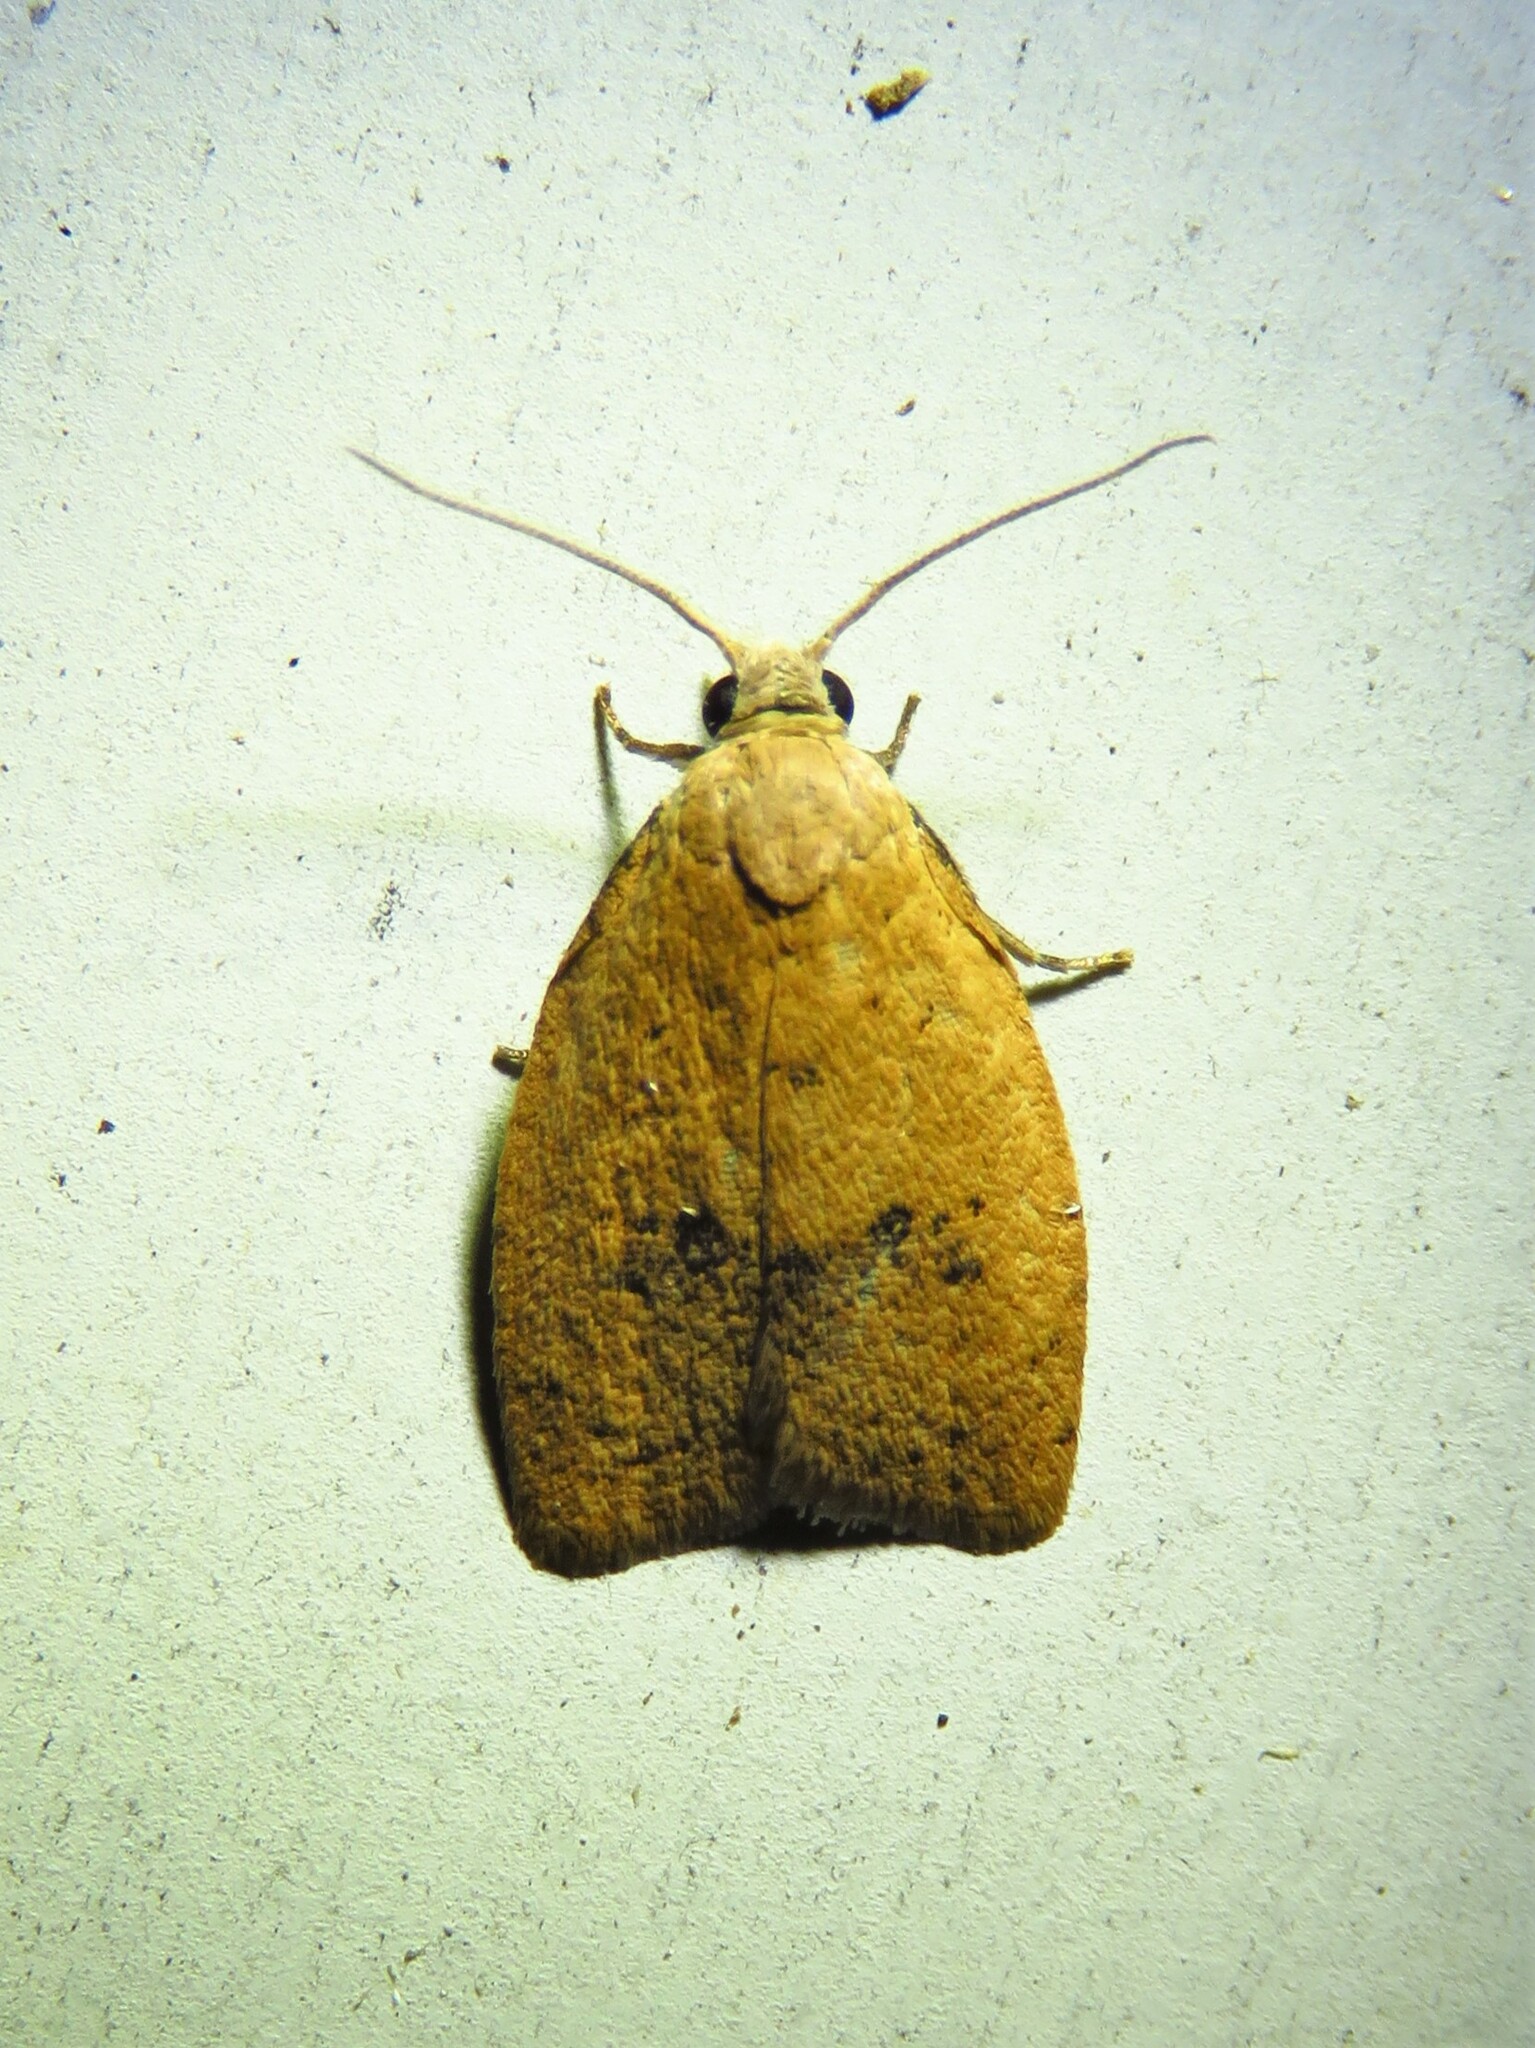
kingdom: Animalia
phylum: Arthropoda
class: Insecta
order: Lepidoptera
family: Tortricidae
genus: Sparganothoides
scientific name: Sparganothoides lentiginosana
